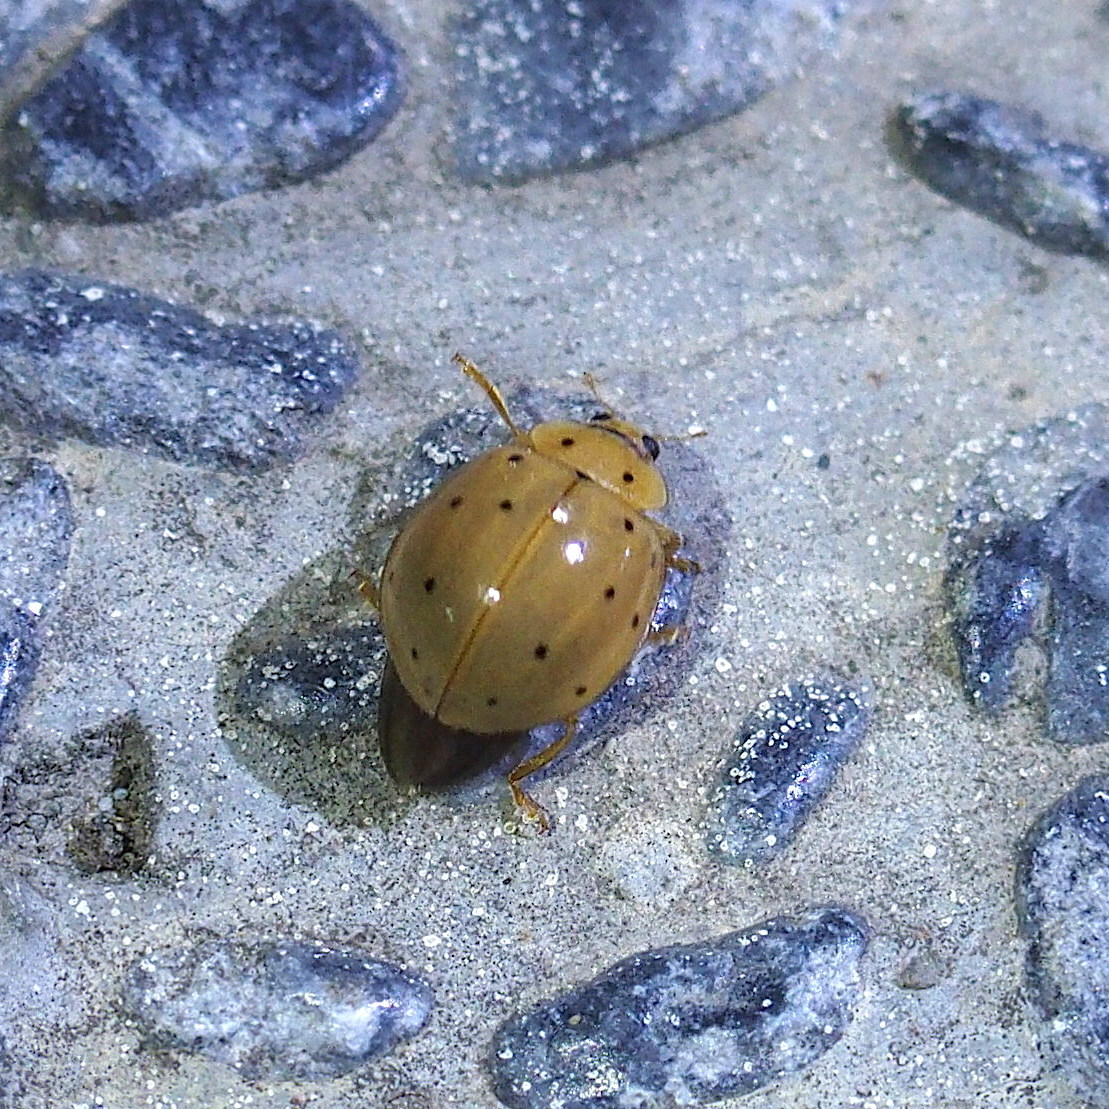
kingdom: Animalia
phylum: Arthropoda
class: Insecta
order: Coleoptera
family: Coccinellidae
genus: Harmonia
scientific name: Harmonia sedecimnotata
